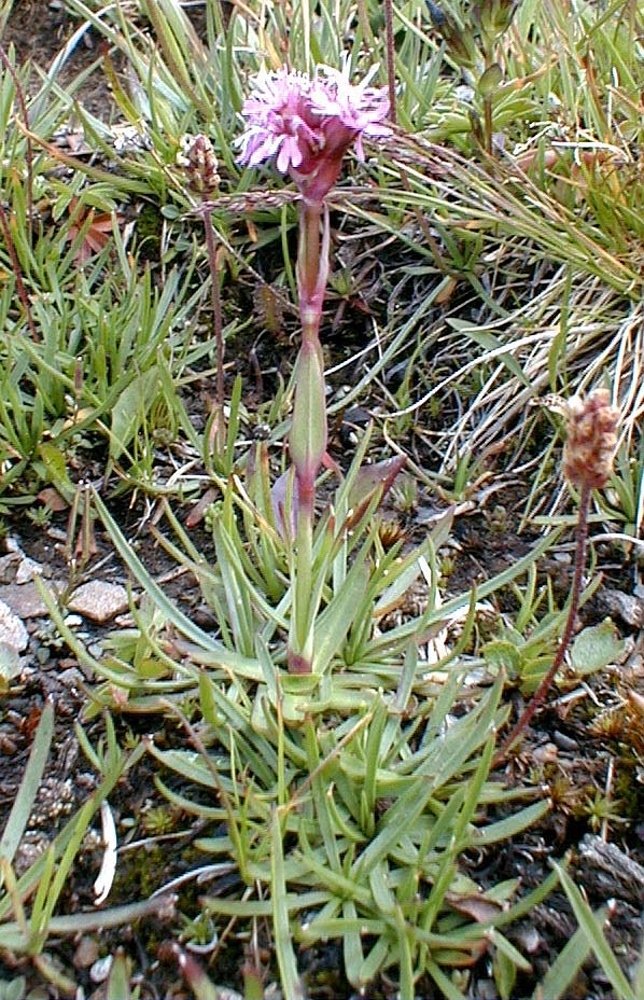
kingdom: Plantae
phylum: Tracheophyta
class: Magnoliopsida
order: Caryophyllales
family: Caryophyllaceae
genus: Viscaria
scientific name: Viscaria alpina
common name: Alpine campion
